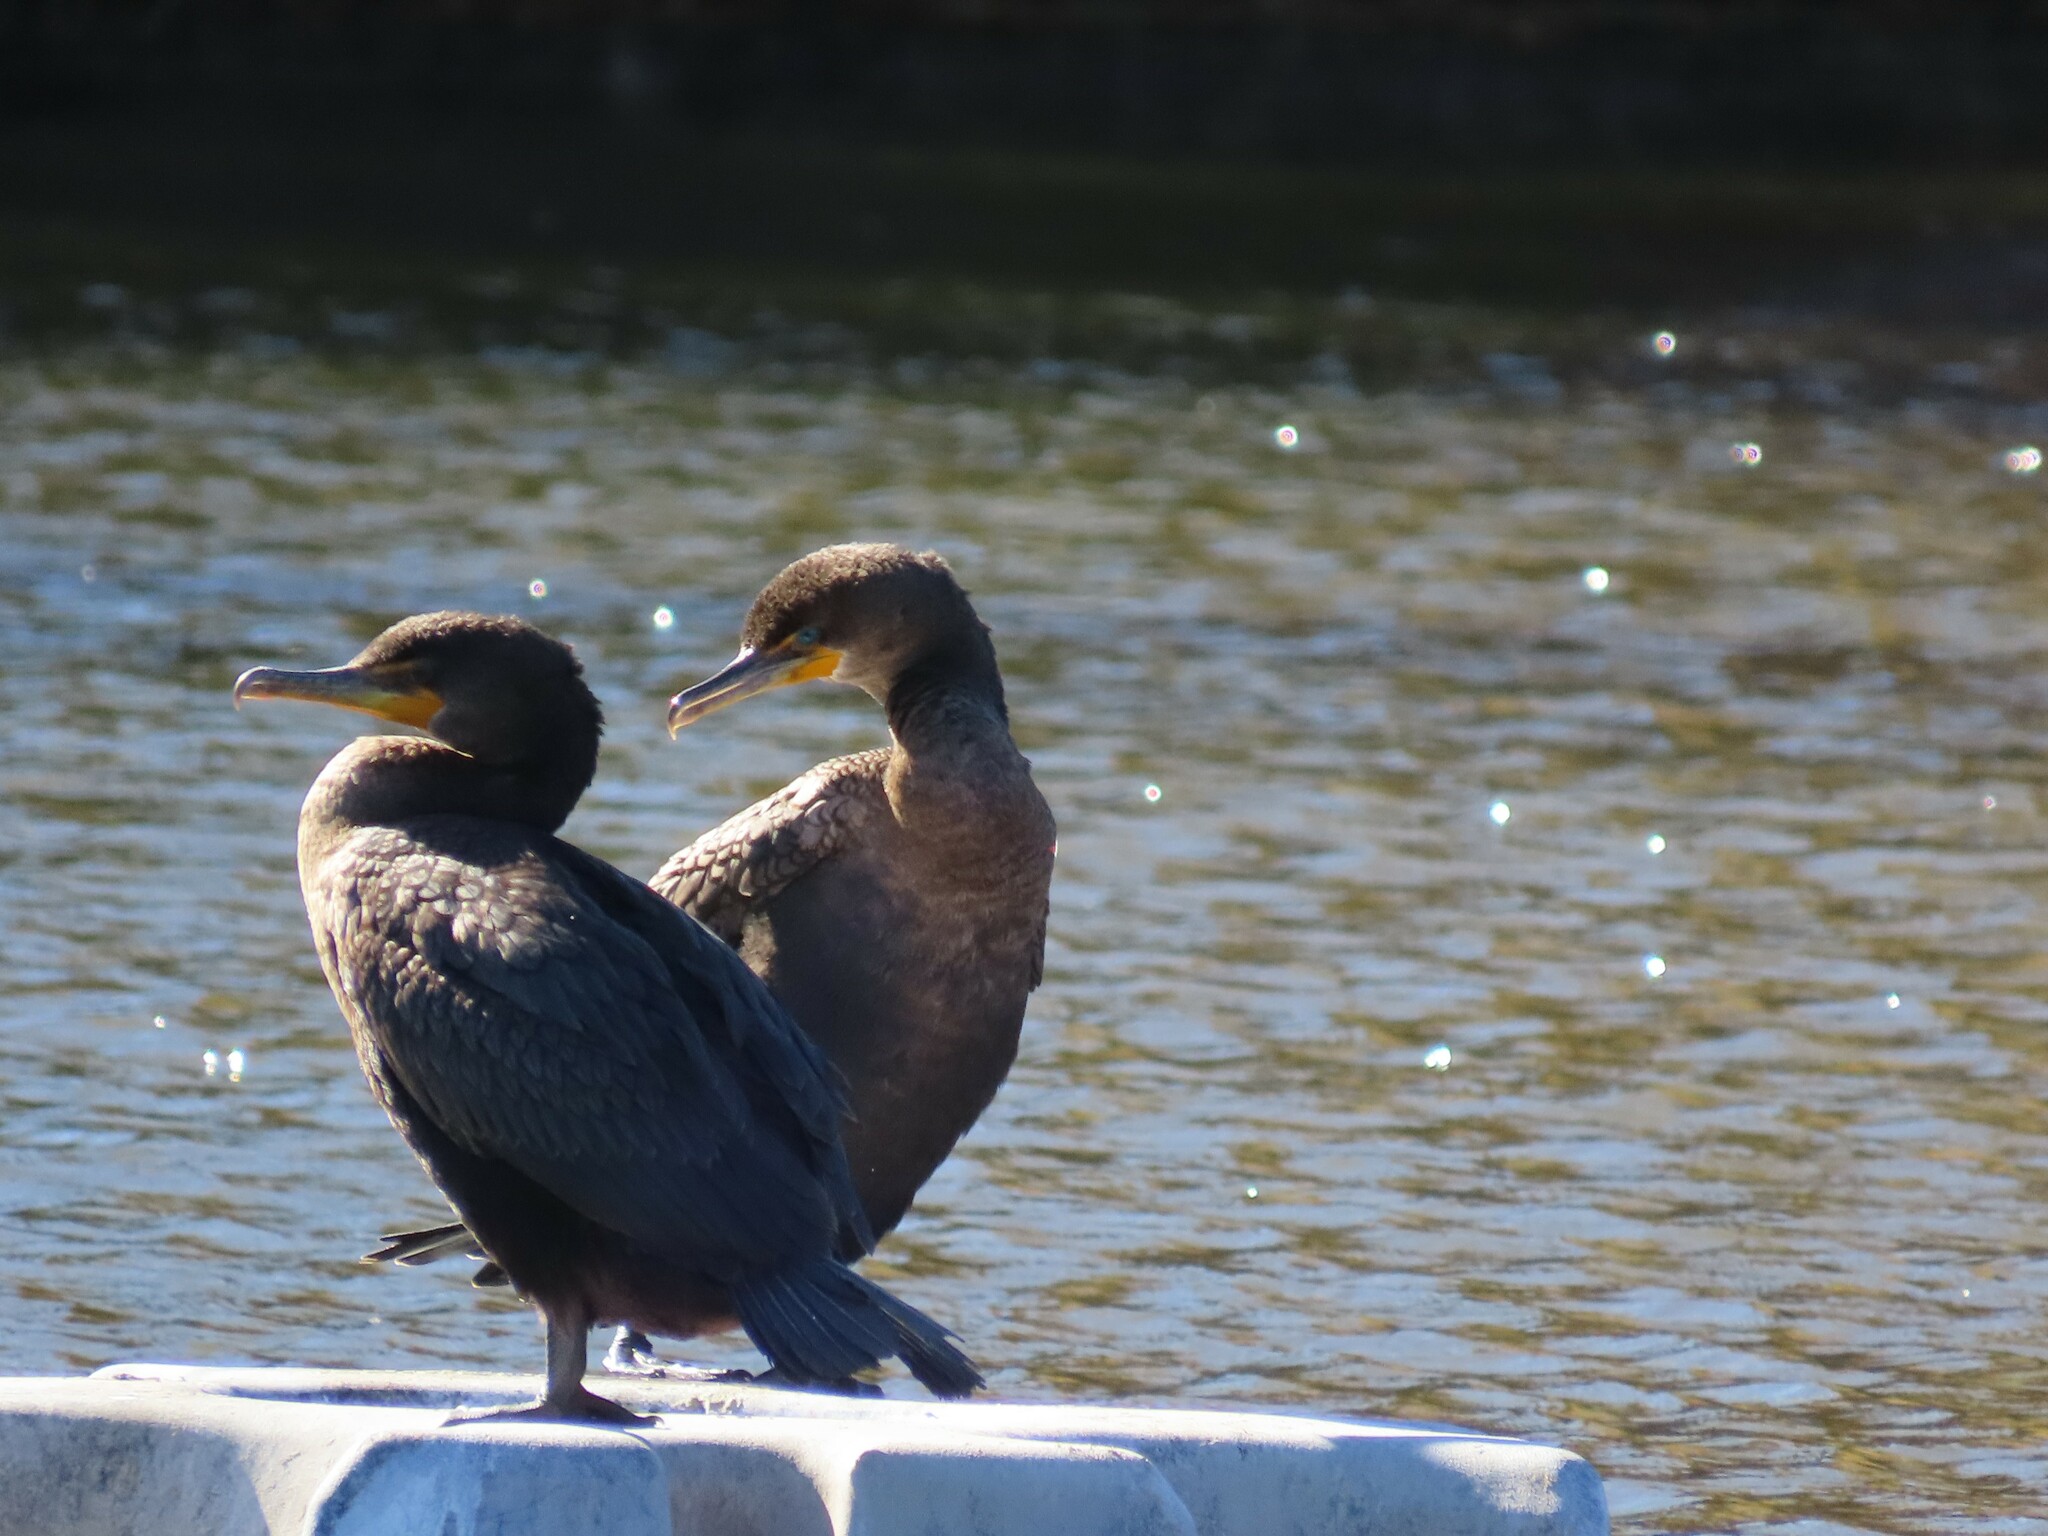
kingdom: Animalia
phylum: Chordata
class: Aves
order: Suliformes
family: Phalacrocoracidae
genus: Phalacrocorax
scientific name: Phalacrocorax auritus
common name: Double-crested cormorant
